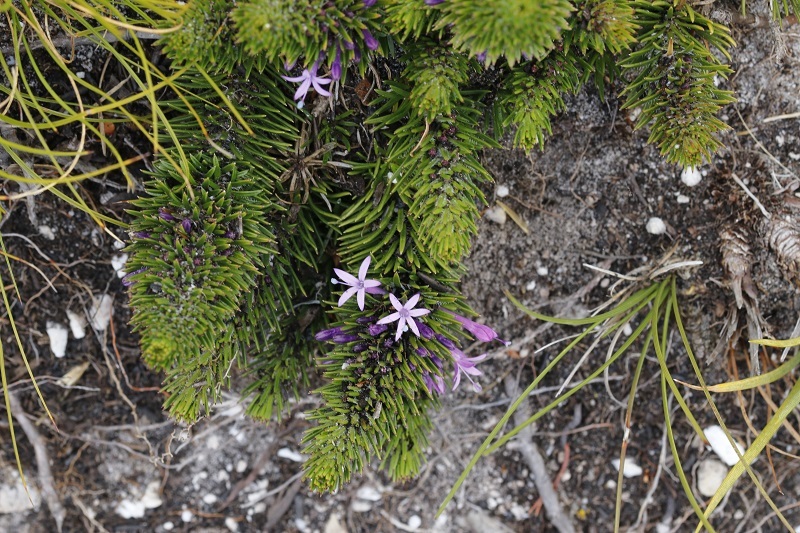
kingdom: Plantae
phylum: Tracheophyta
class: Magnoliopsida
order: Asterales
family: Campanulaceae
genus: Merciera
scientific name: Merciera tenuifolia
